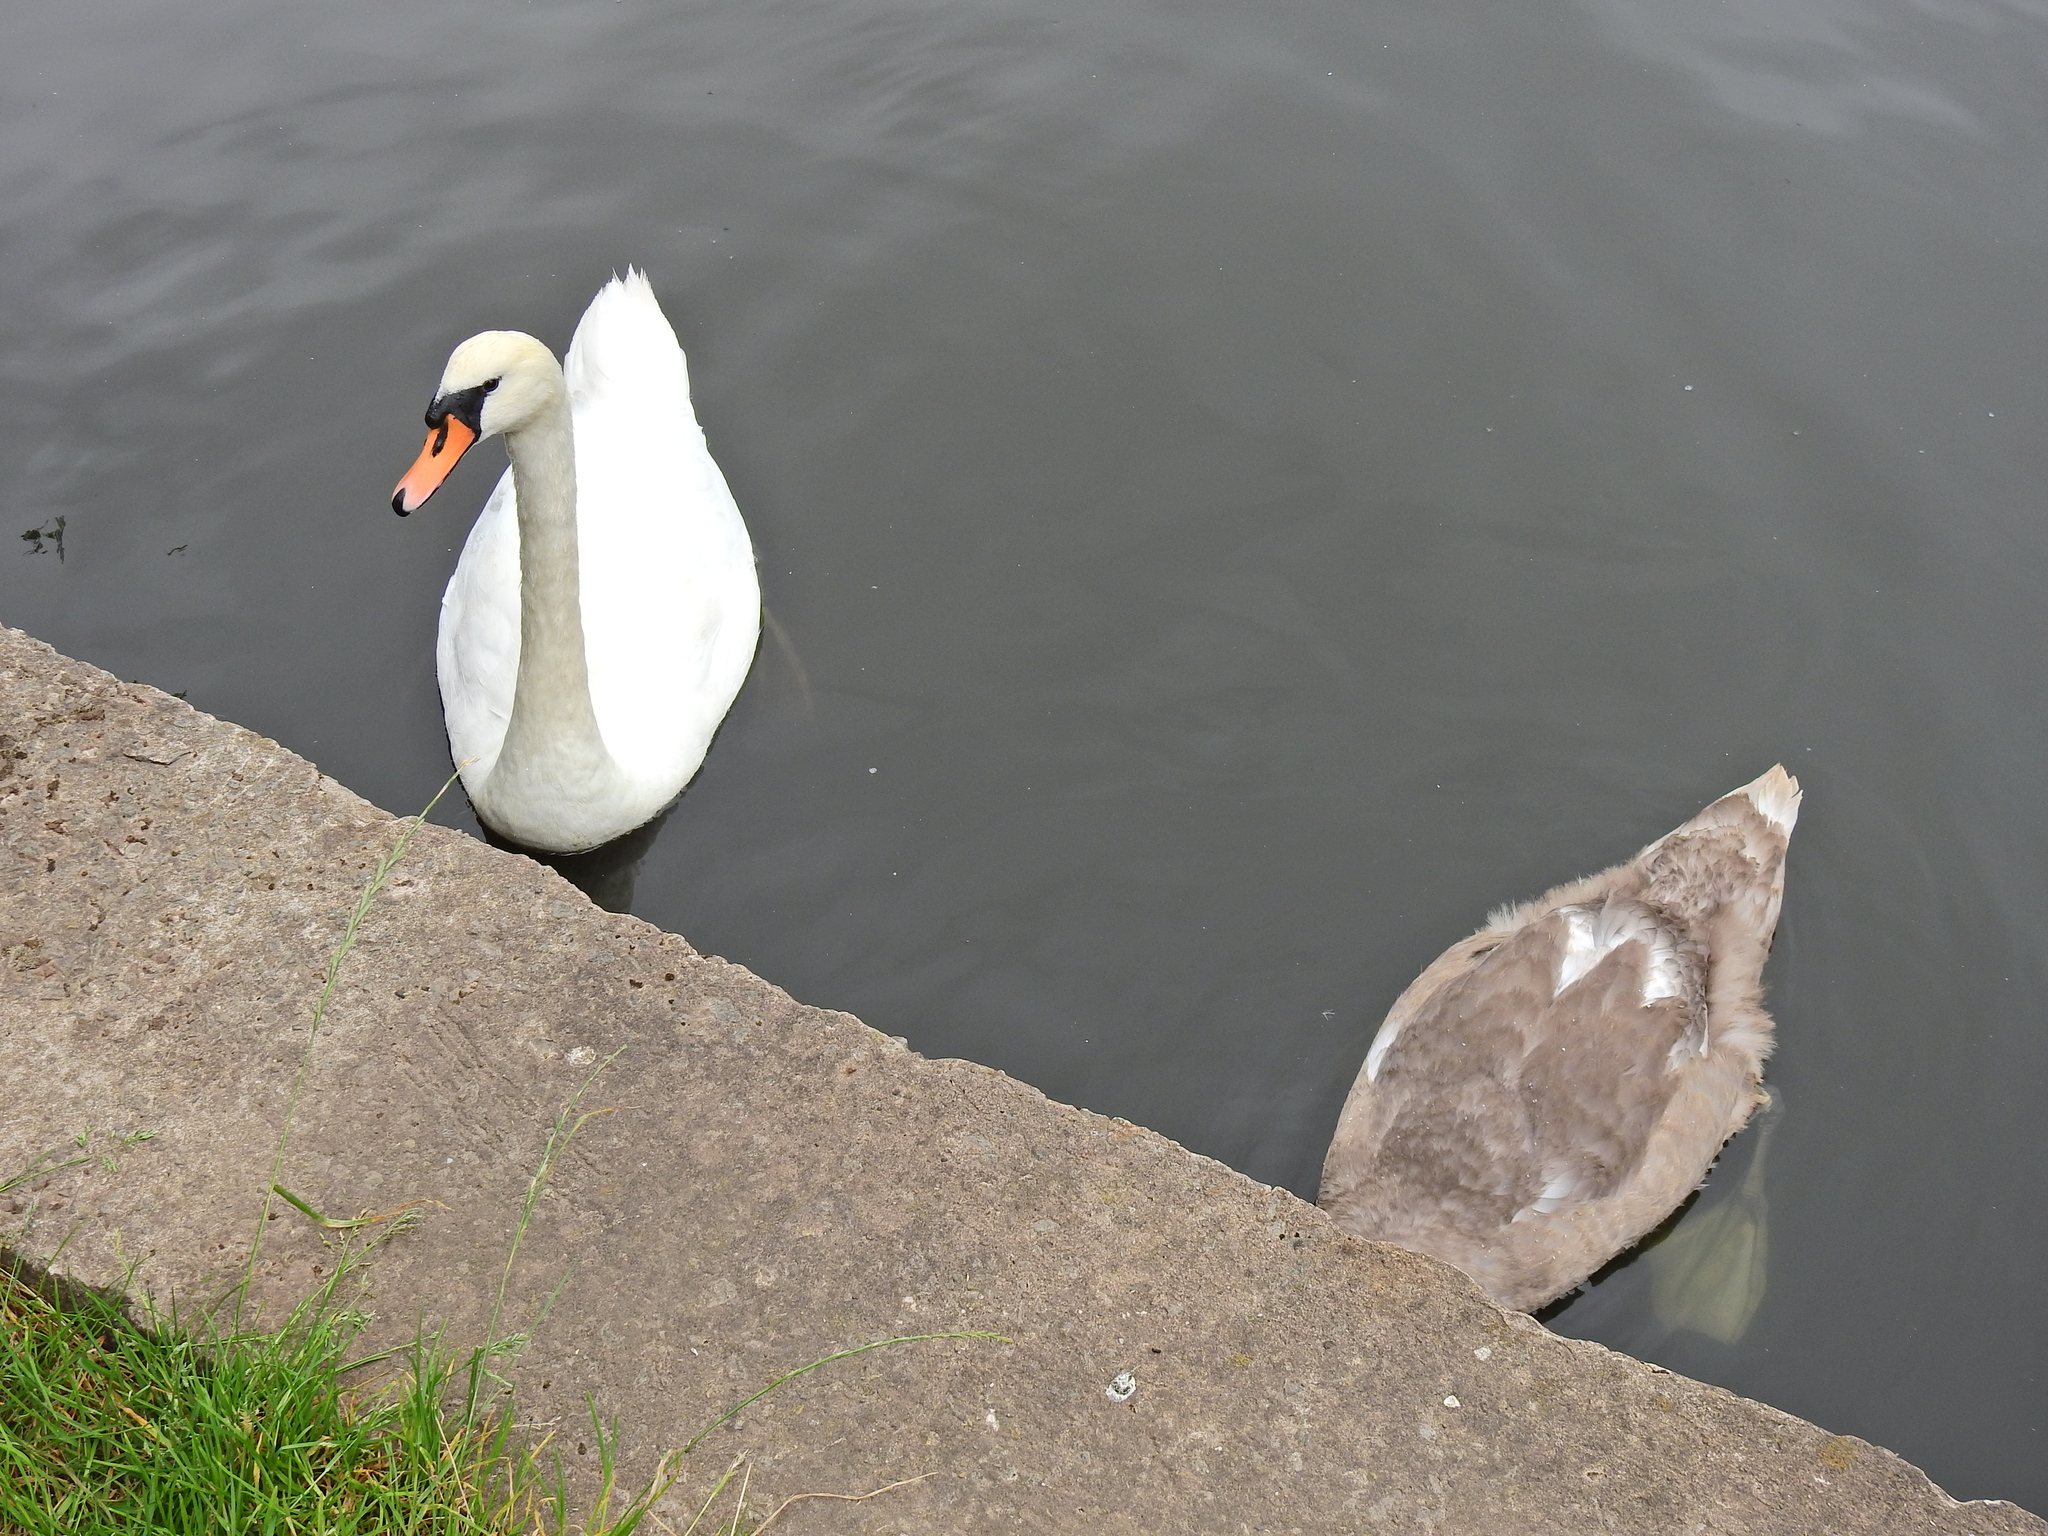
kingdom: Animalia
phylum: Chordata
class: Aves
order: Anseriformes
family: Anatidae
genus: Cygnus
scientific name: Cygnus olor
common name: Mute swan
